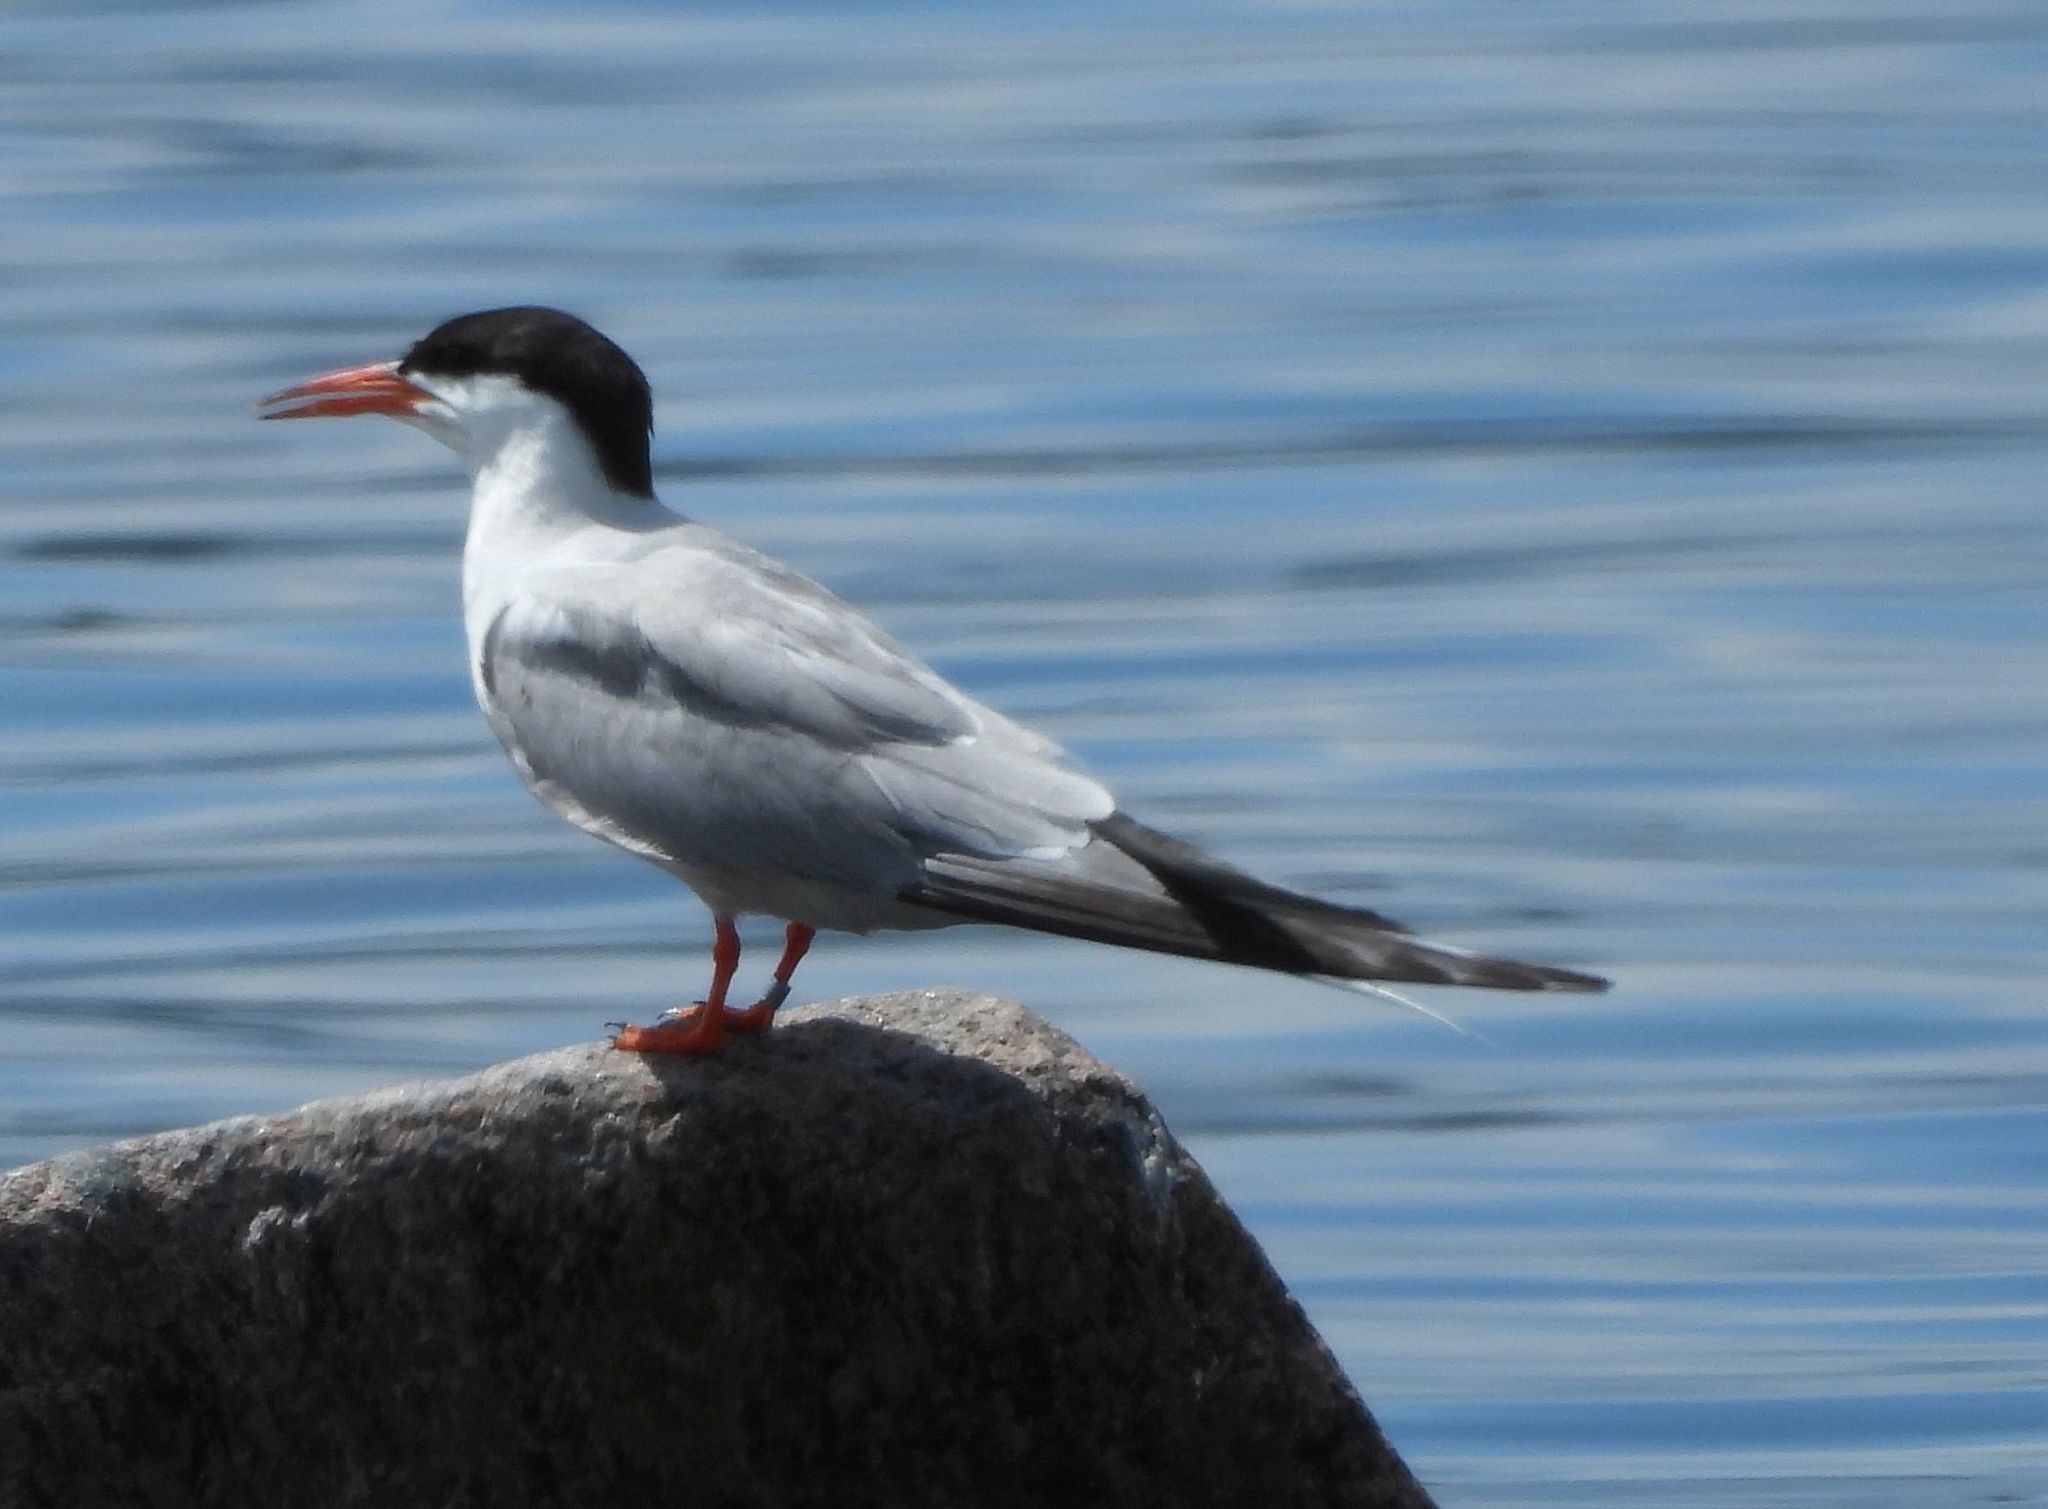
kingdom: Animalia
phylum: Chordata
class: Aves
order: Charadriiformes
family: Laridae
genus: Sterna
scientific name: Sterna hirundo
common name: Common tern
